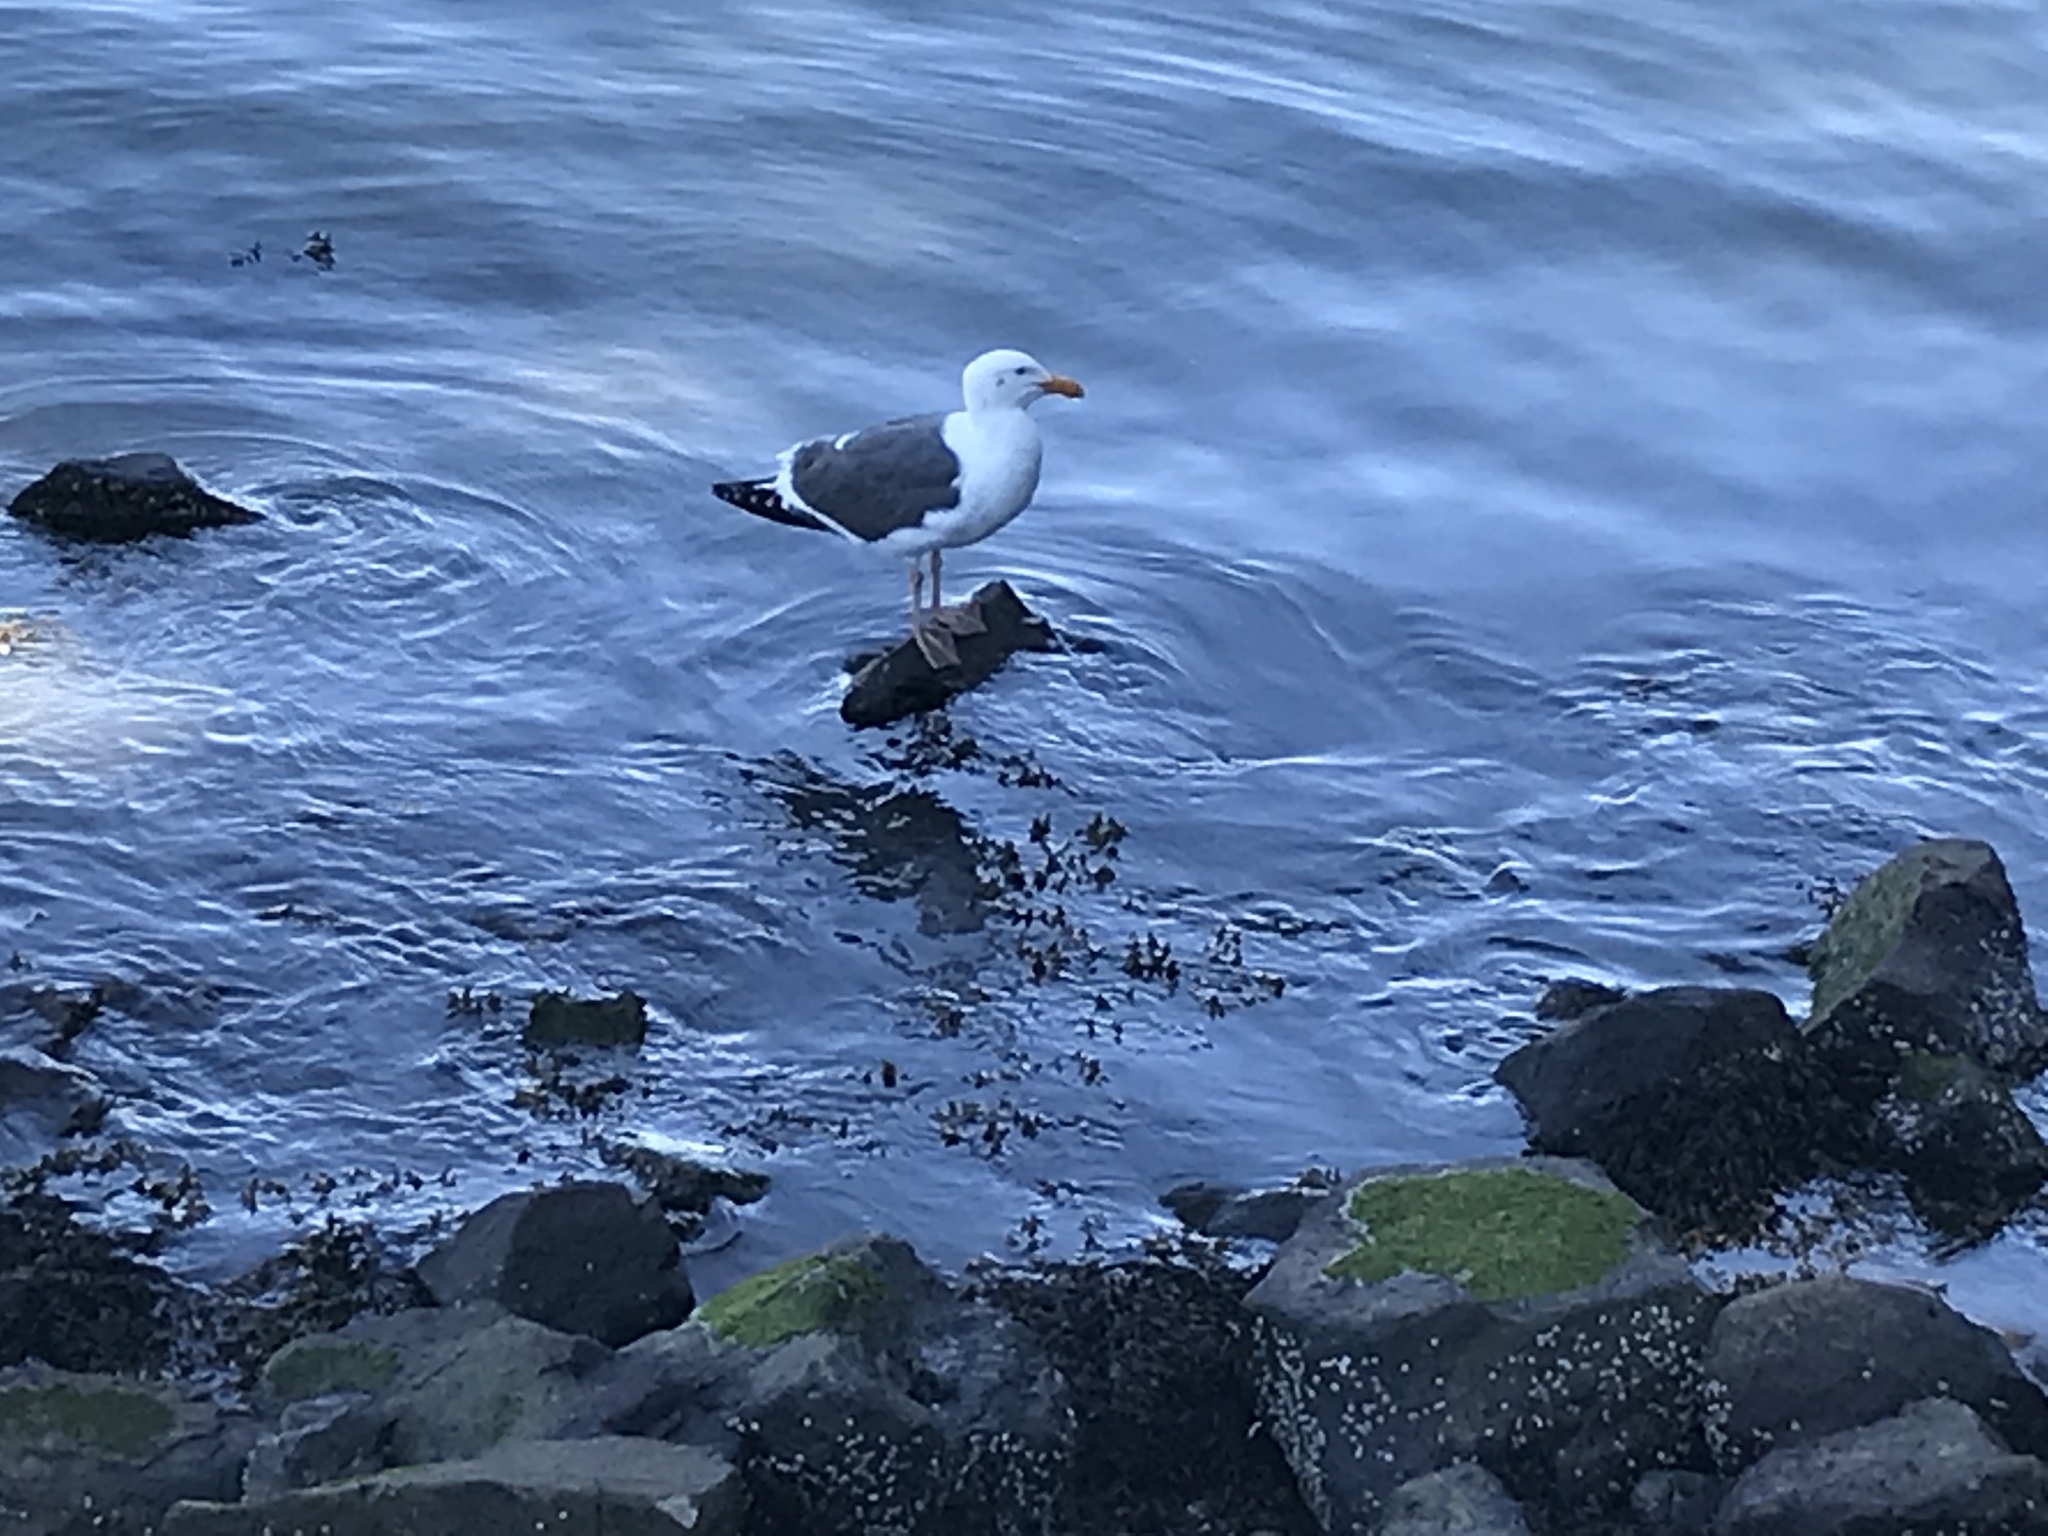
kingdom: Animalia
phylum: Chordata
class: Aves
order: Charadriiformes
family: Laridae
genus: Larus
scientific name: Larus occidentalis
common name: Western gull
